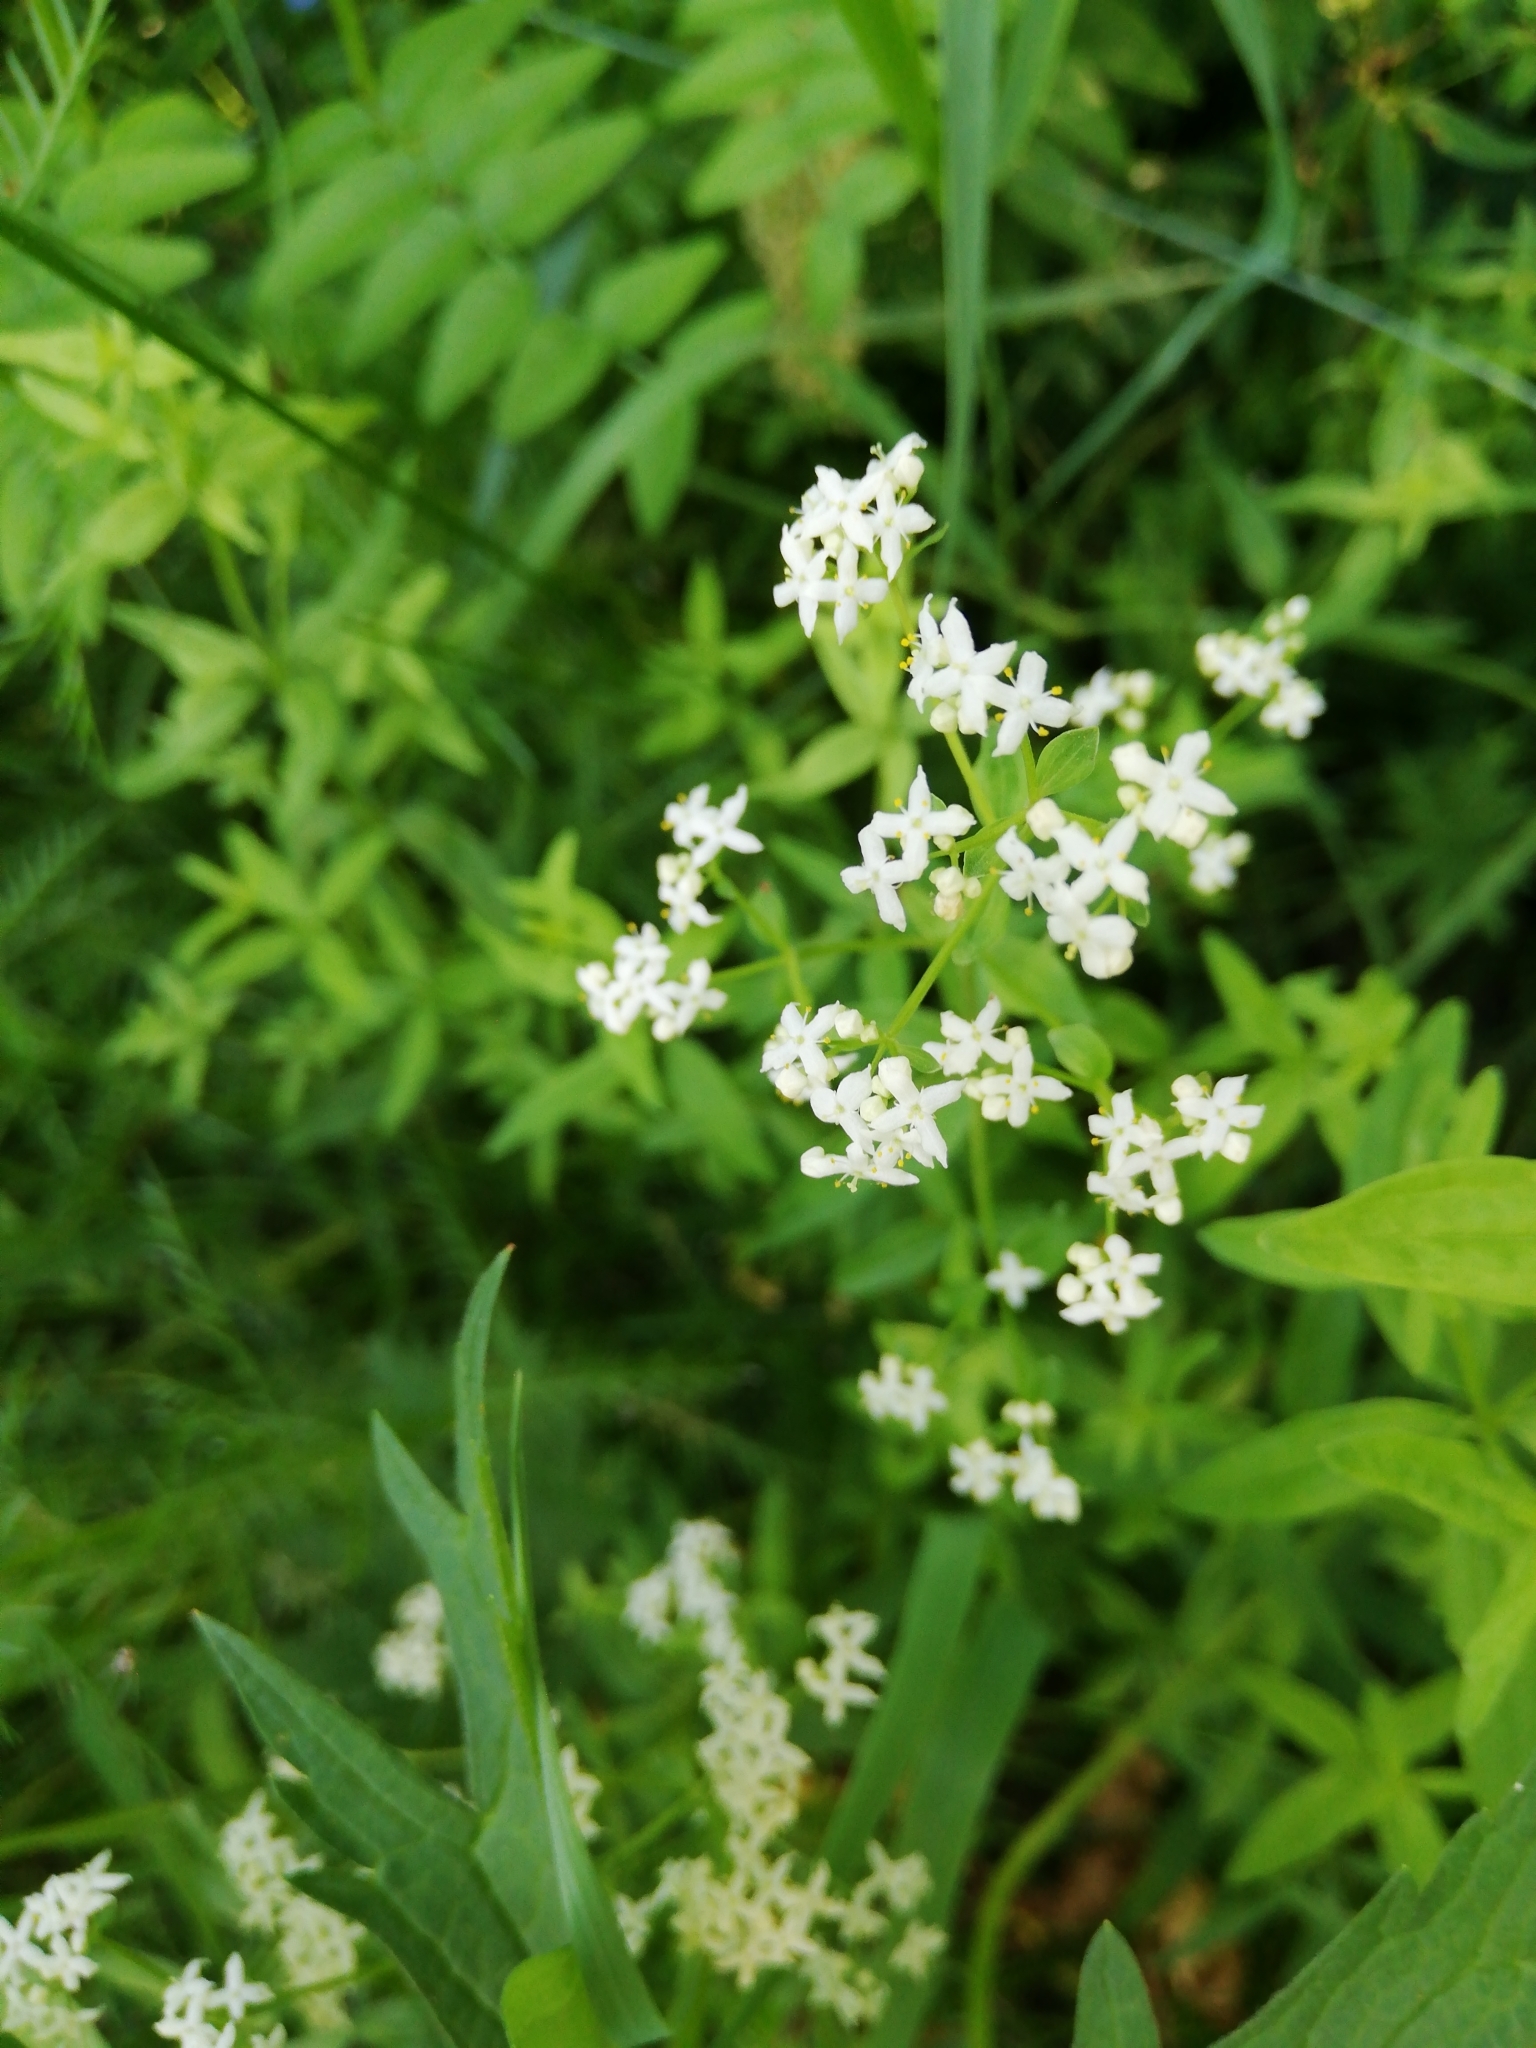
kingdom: Plantae
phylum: Tracheophyta
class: Magnoliopsida
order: Gentianales
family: Rubiaceae
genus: Galium
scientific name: Galium boreale
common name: Northern bedstraw
